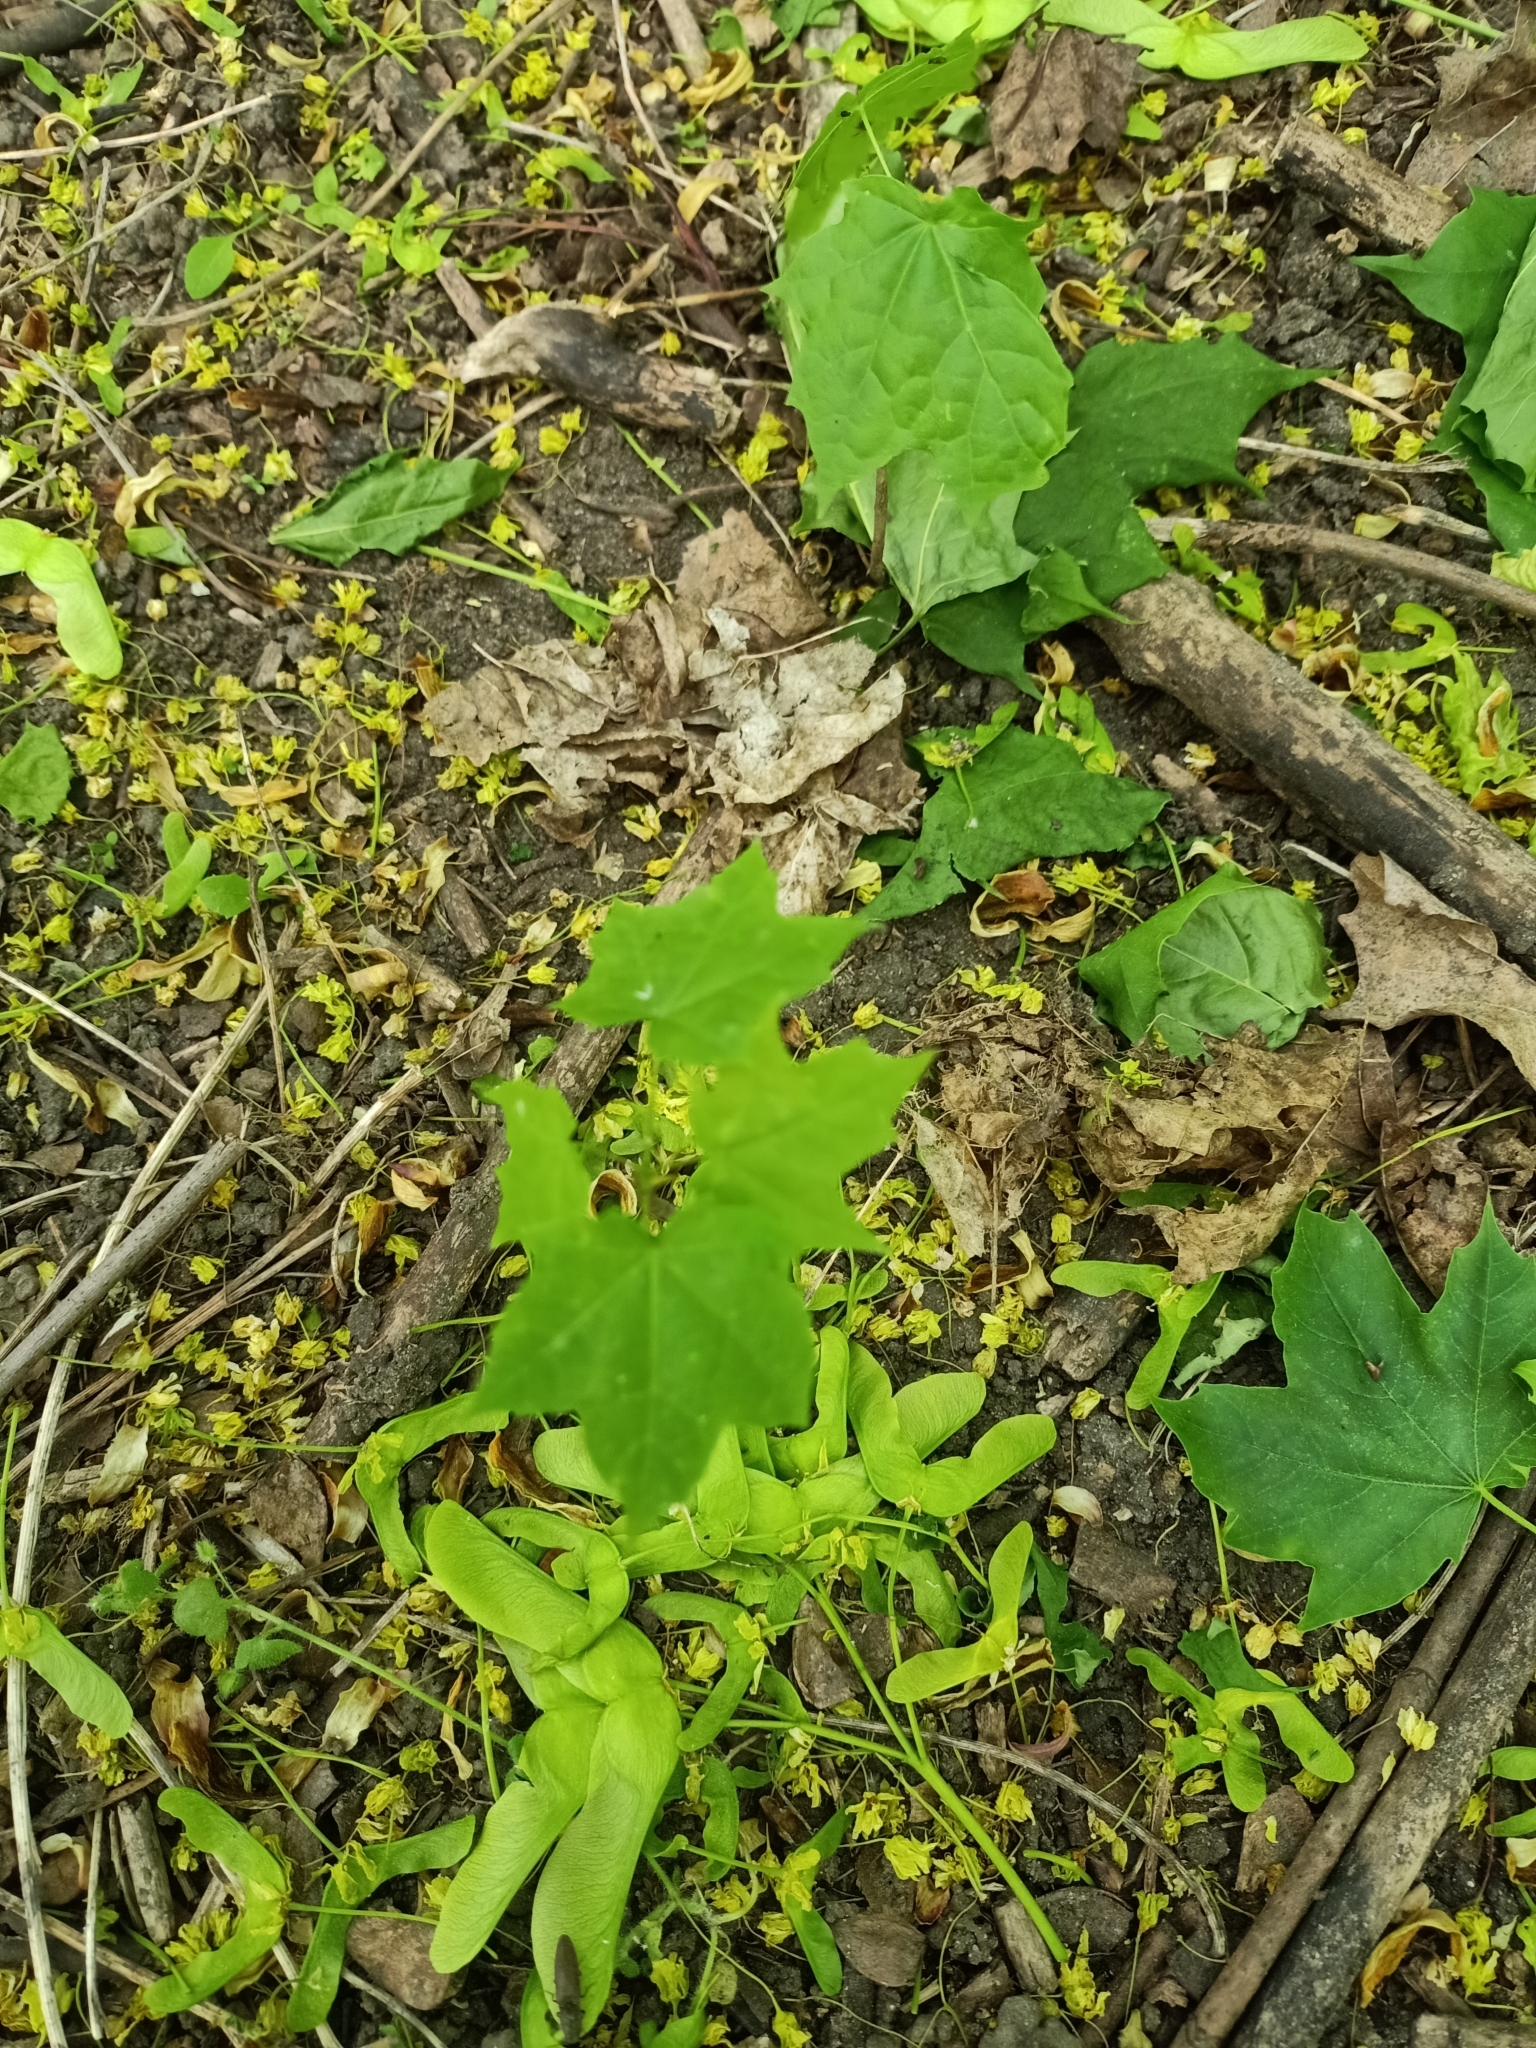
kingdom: Plantae
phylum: Tracheophyta
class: Magnoliopsida
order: Sapindales
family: Sapindaceae
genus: Acer
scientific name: Acer platanoides
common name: Norway maple
